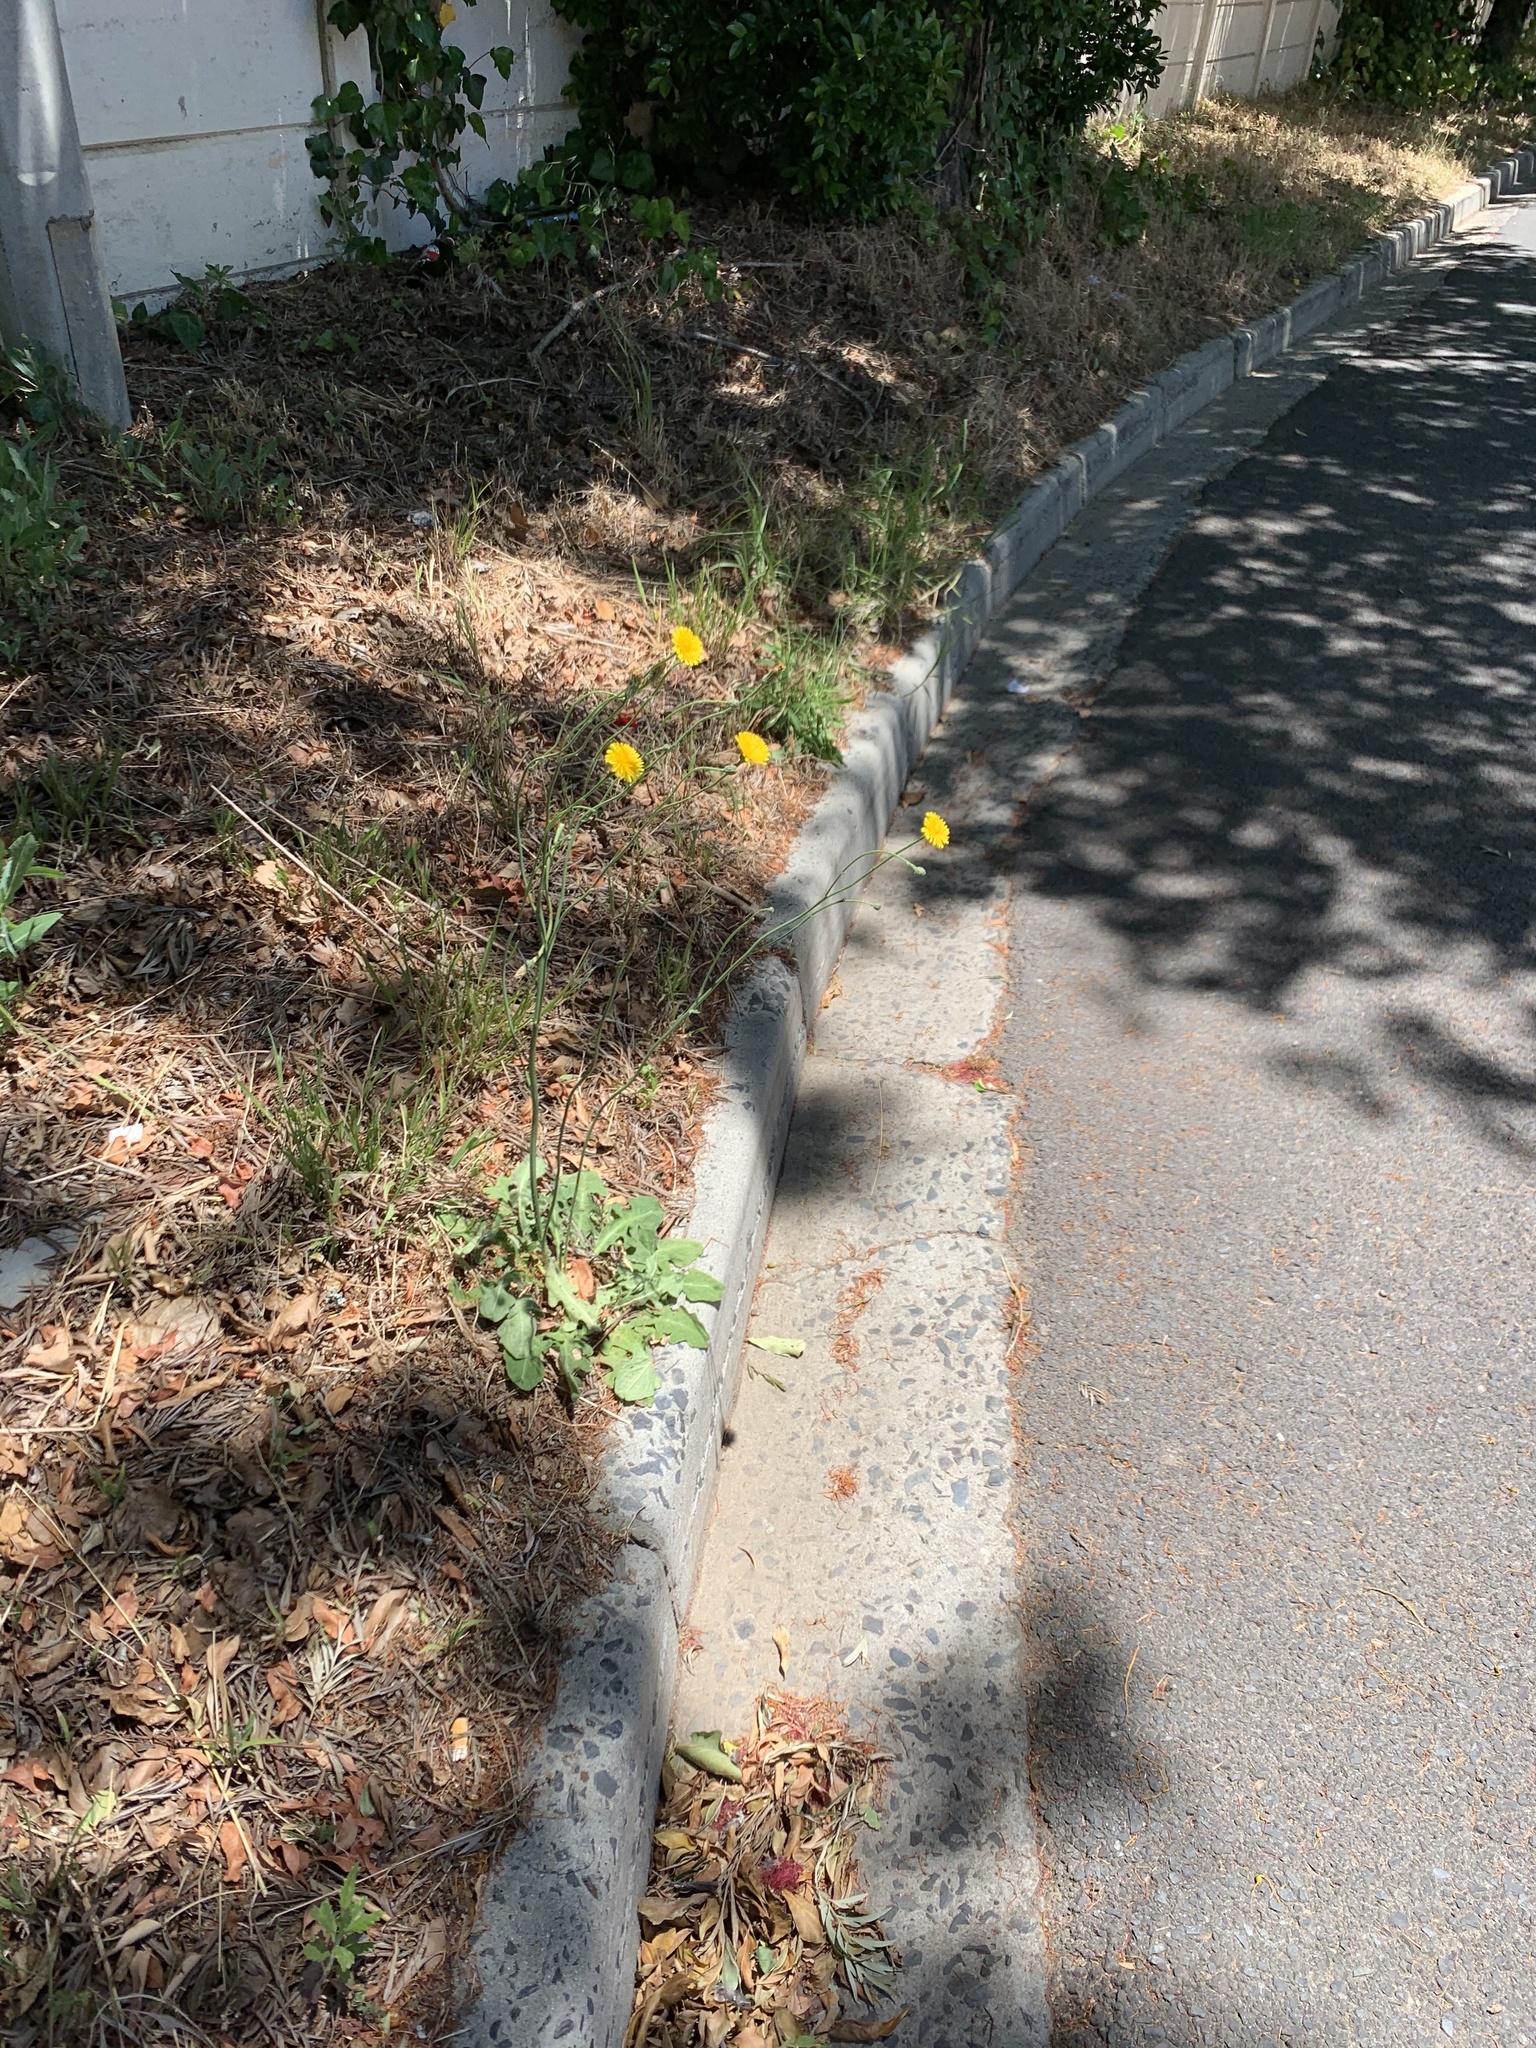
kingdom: Plantae
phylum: Tracheophyta
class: Magnoliopsida
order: Asterales
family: Asteraceae
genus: Hypochaeris
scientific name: Hypochaeris radicata
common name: Flatweed
